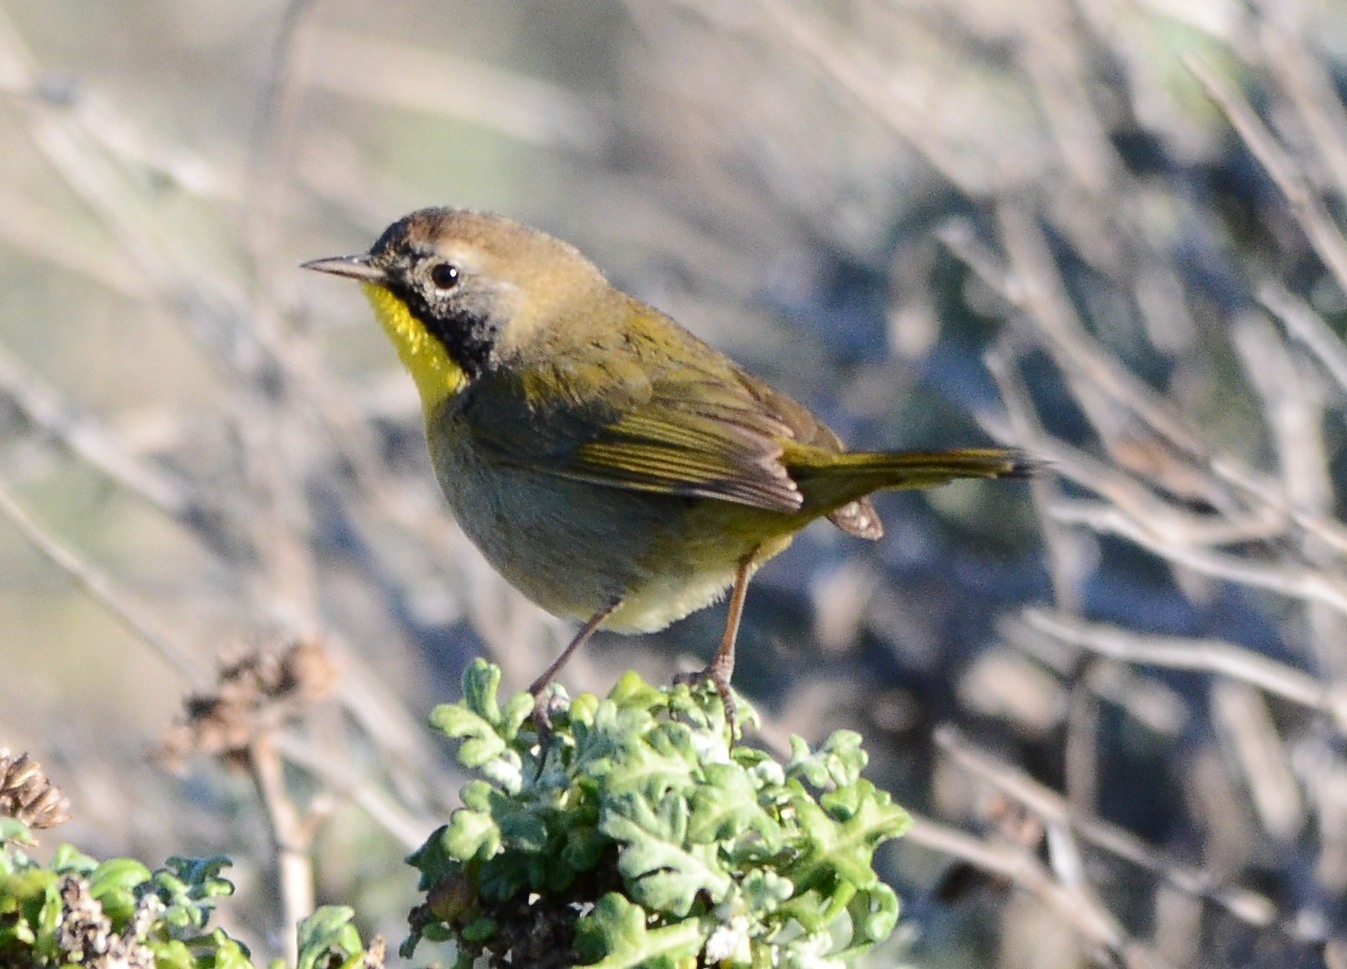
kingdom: Animalia
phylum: Chordata
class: Aves
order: Passeriformes
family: Parulidae
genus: Geothlypis
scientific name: Geothlypis trichas
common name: Common yellowthroat
